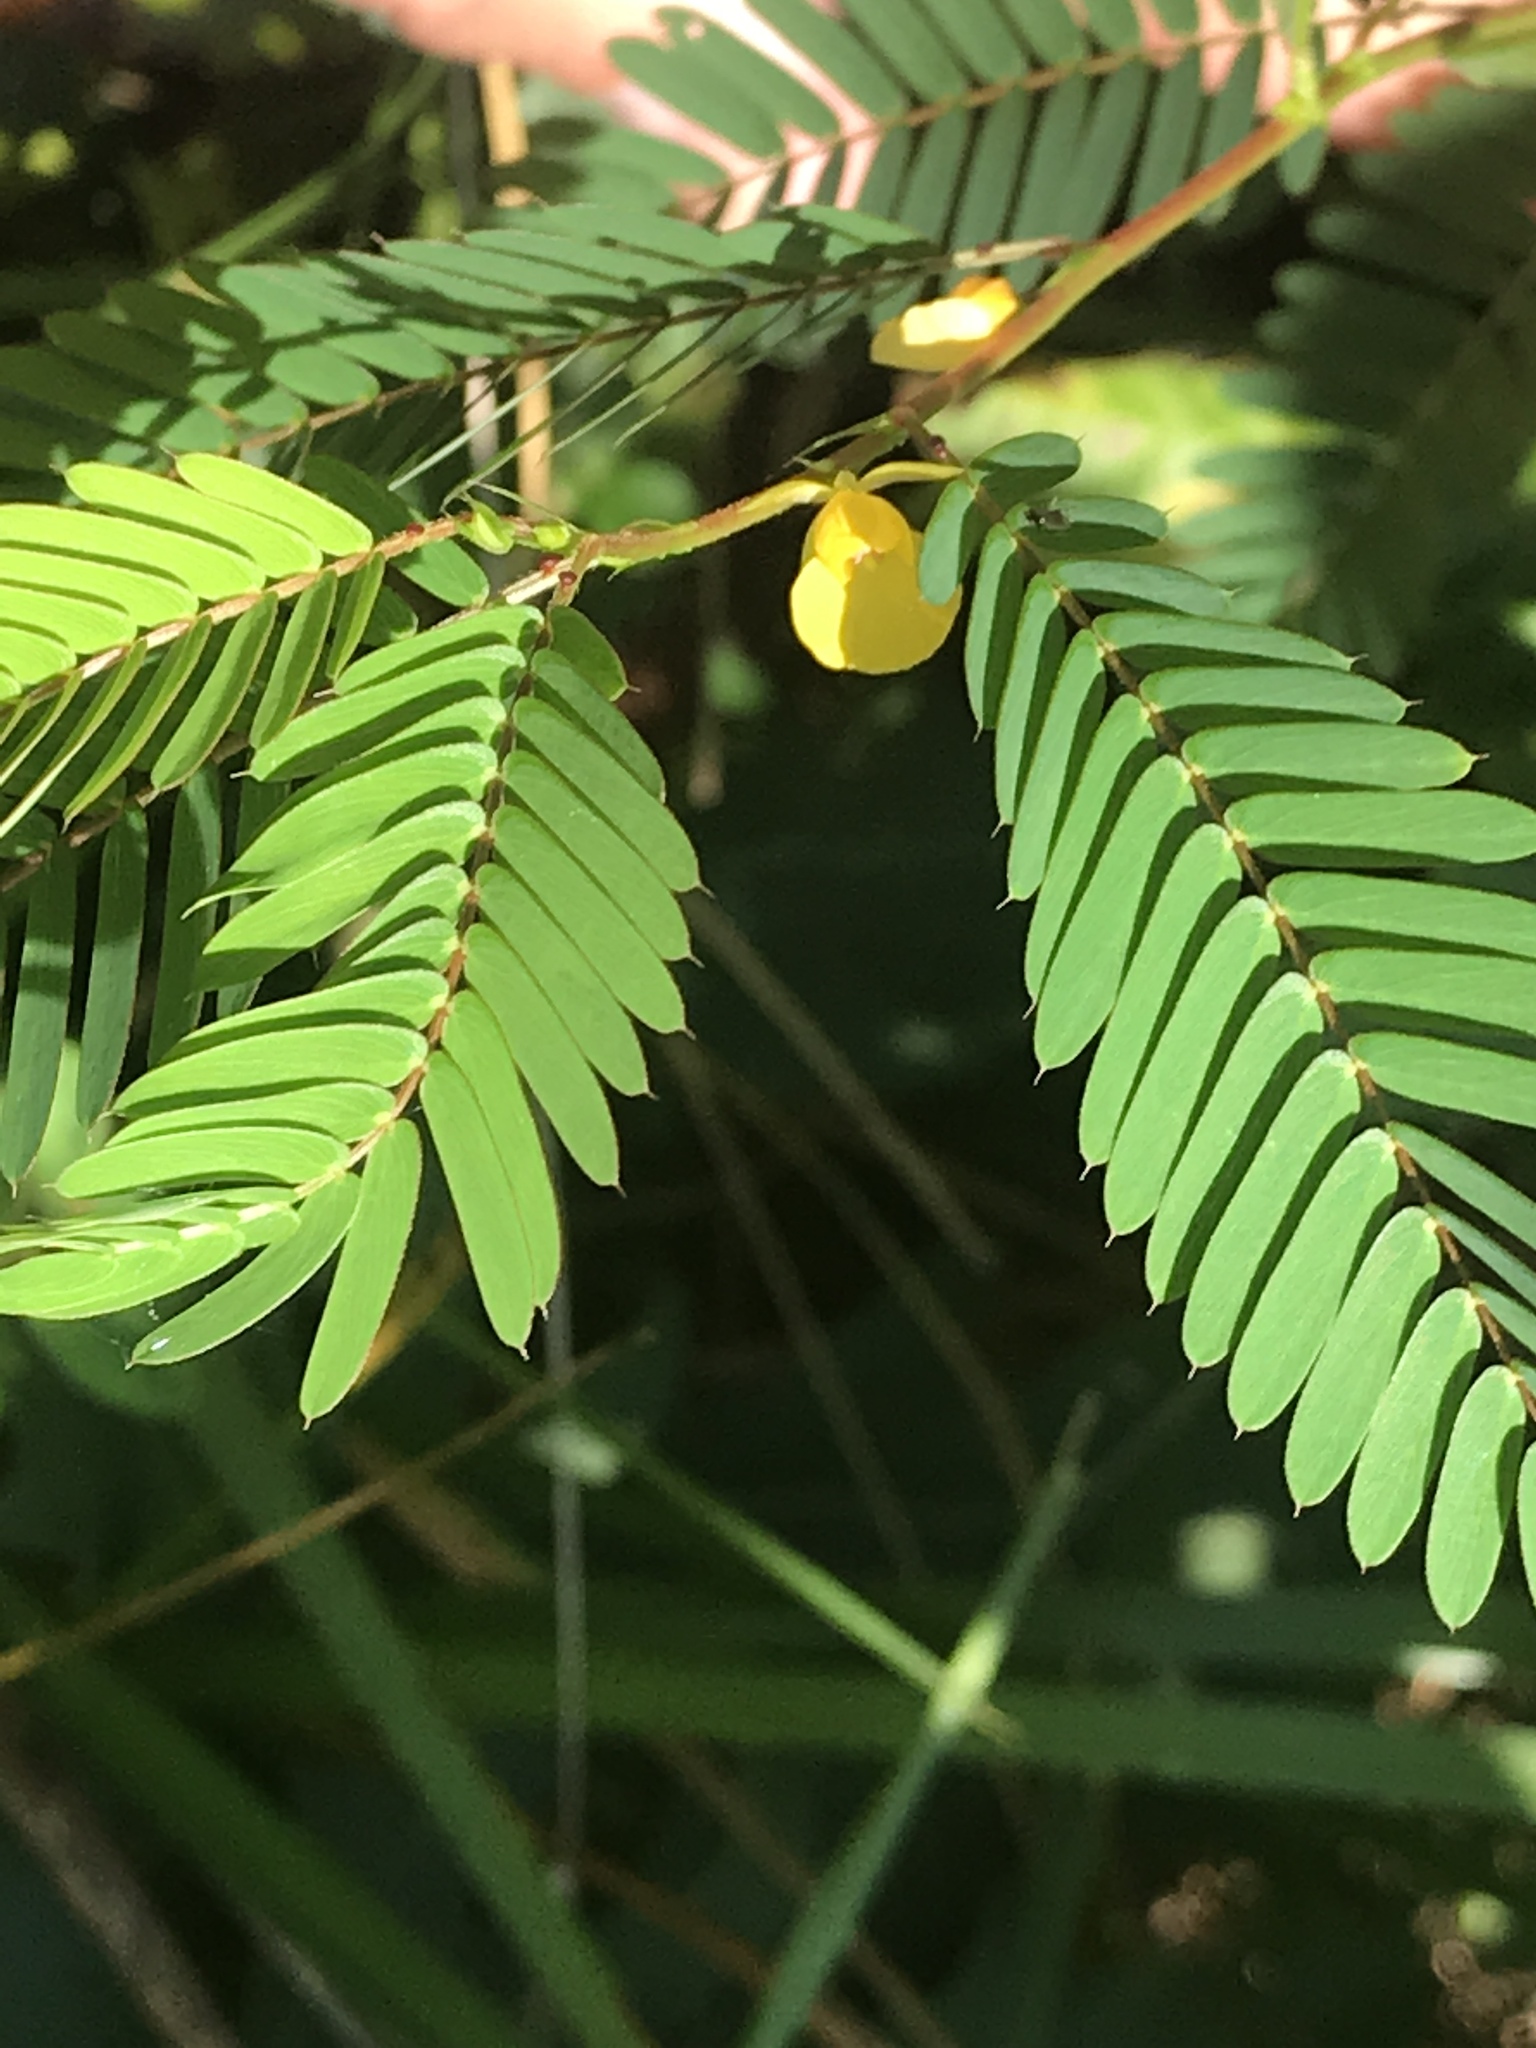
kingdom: Plantae
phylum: Tracheophyta
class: Magnoliopsida
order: Fabales
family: Fabaceae
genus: Chamaecrista
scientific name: Chamaecrista nictitans
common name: Sensitive cassia
